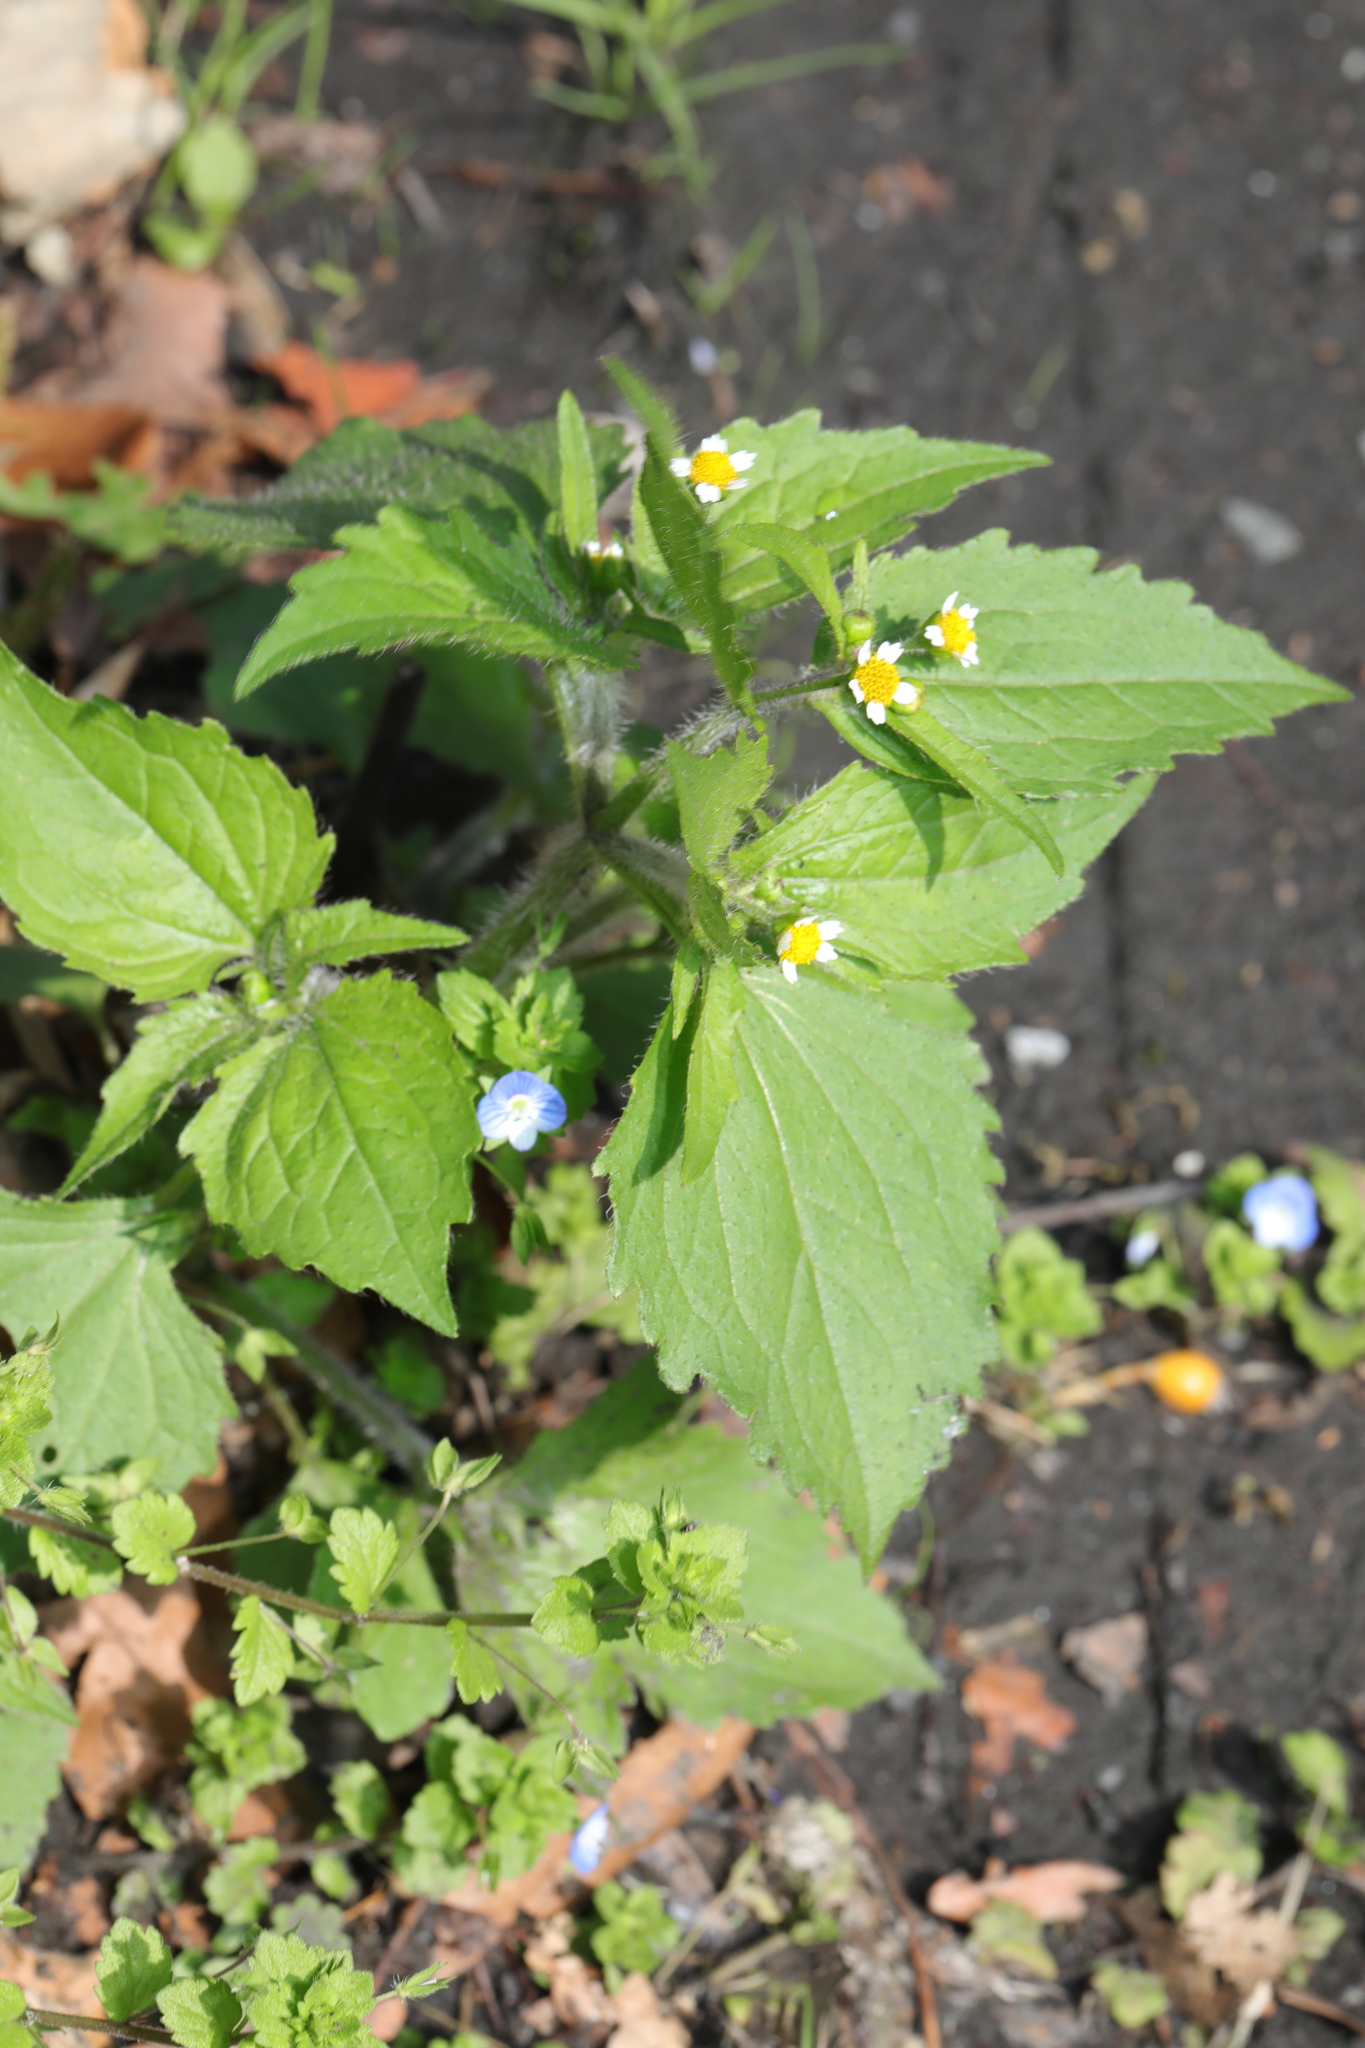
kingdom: Plantae
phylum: Tracheophyta
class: Magnoliopsida
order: Asterales
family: Asteraceae
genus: Galinsoga
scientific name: Galinsoga quadriradiata
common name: Shaggy soldier
